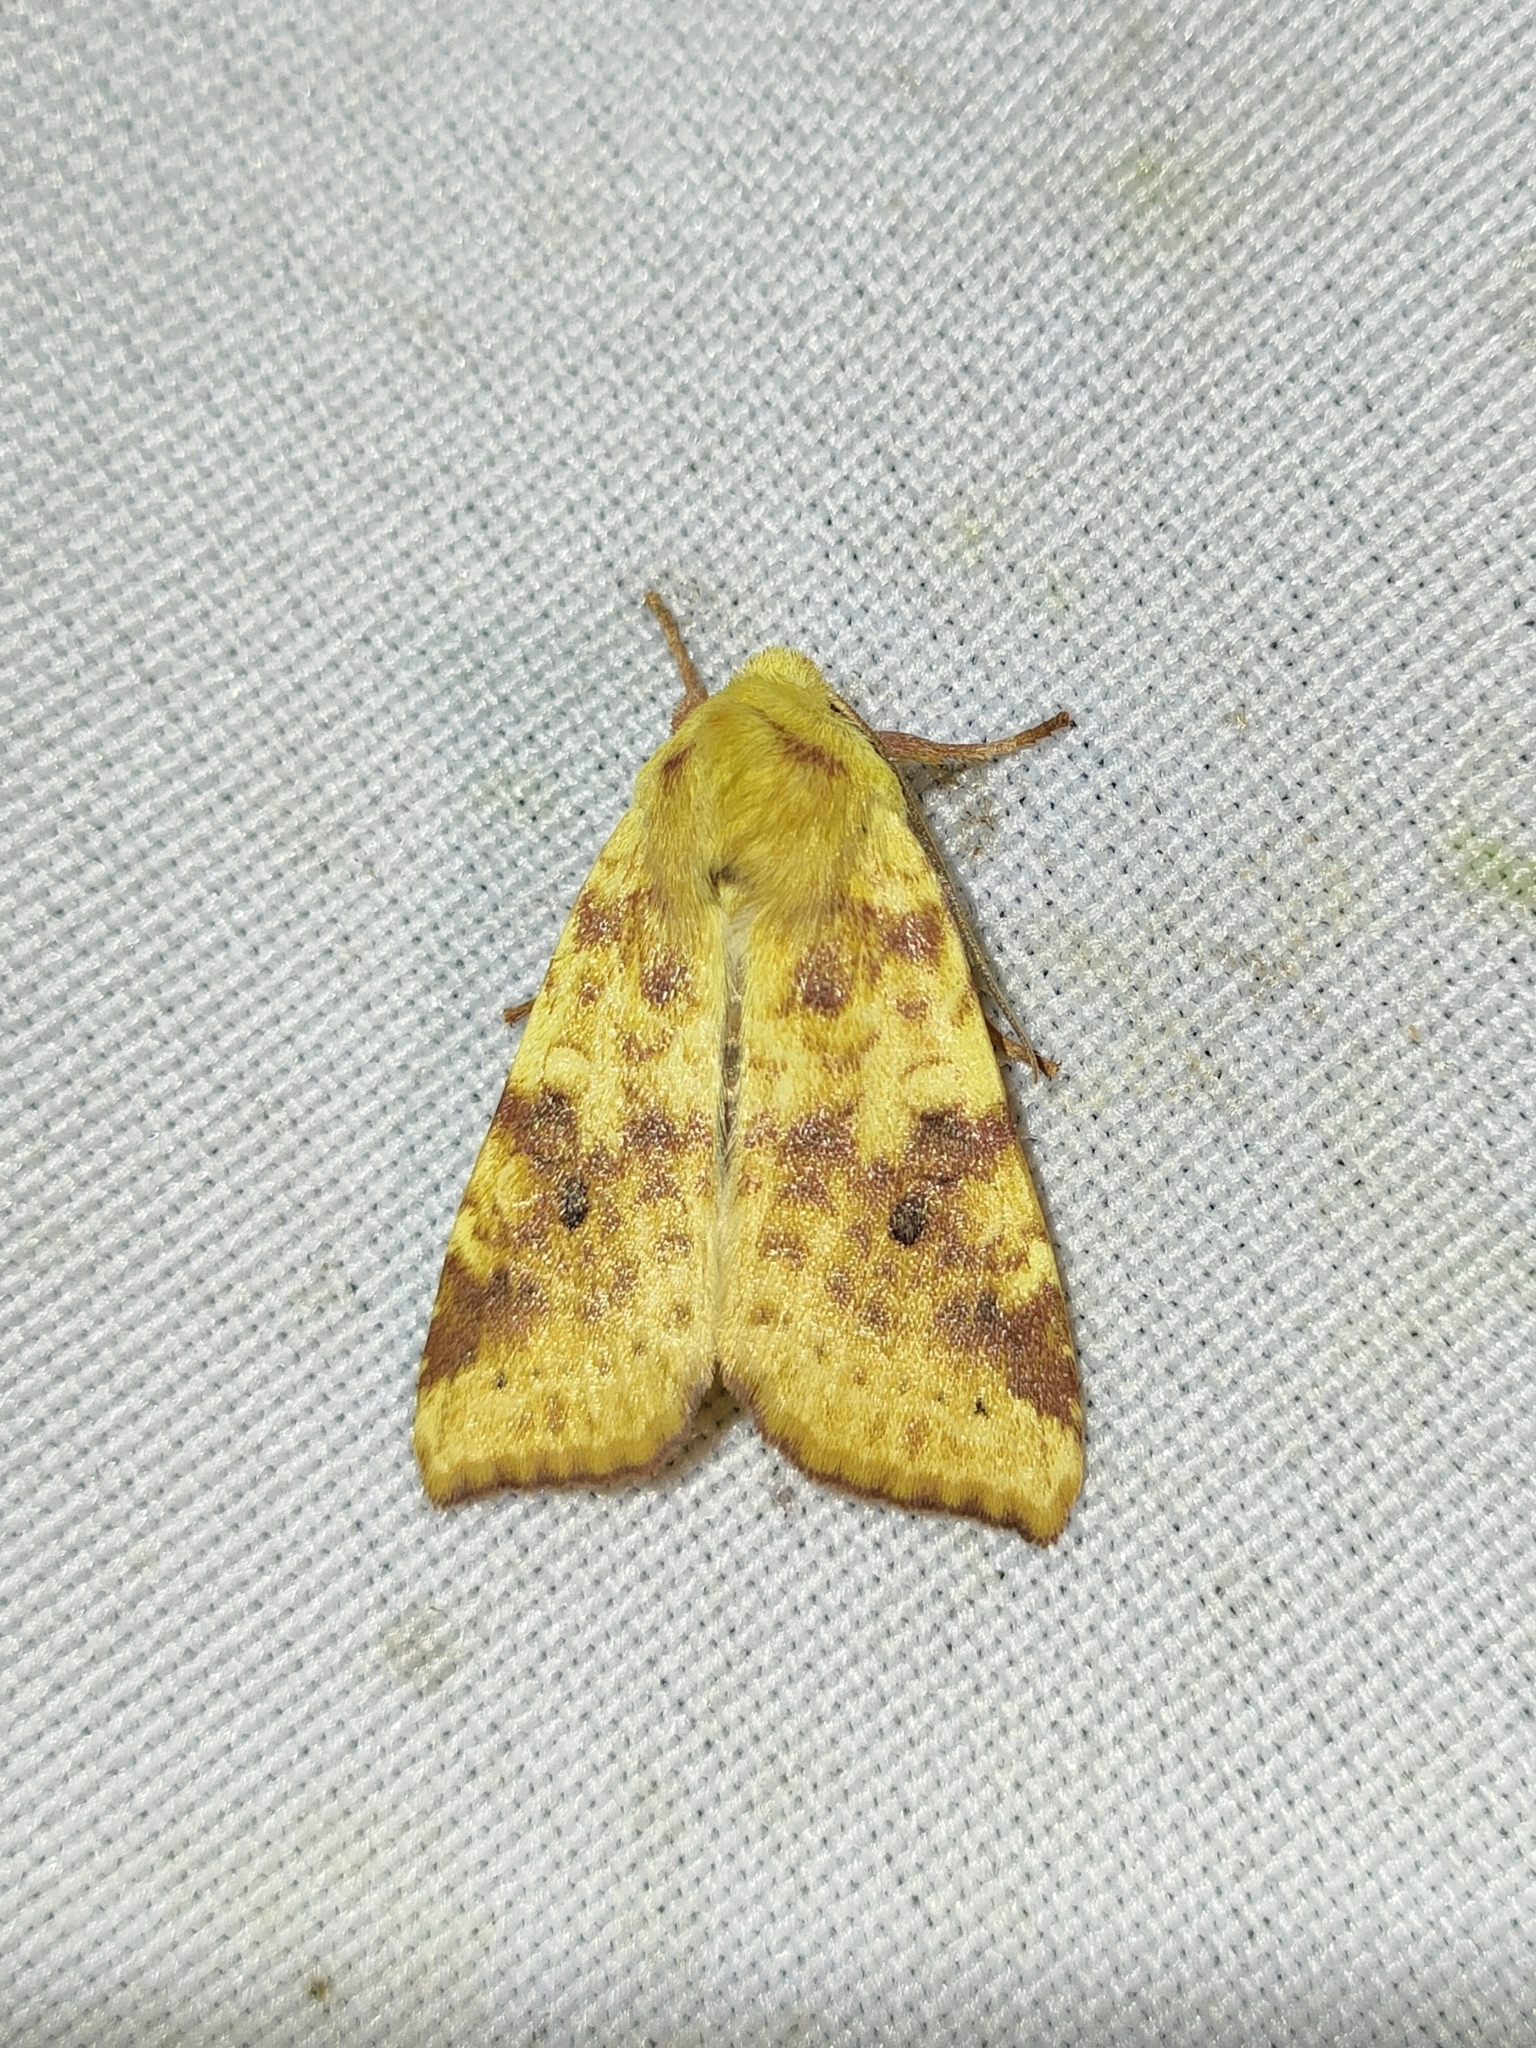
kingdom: Animalia
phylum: Arthropoda
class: Insecta
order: Lepidoptera
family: Noctuidae
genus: Xanthia
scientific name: Xanthia icteritia
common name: The sallow
